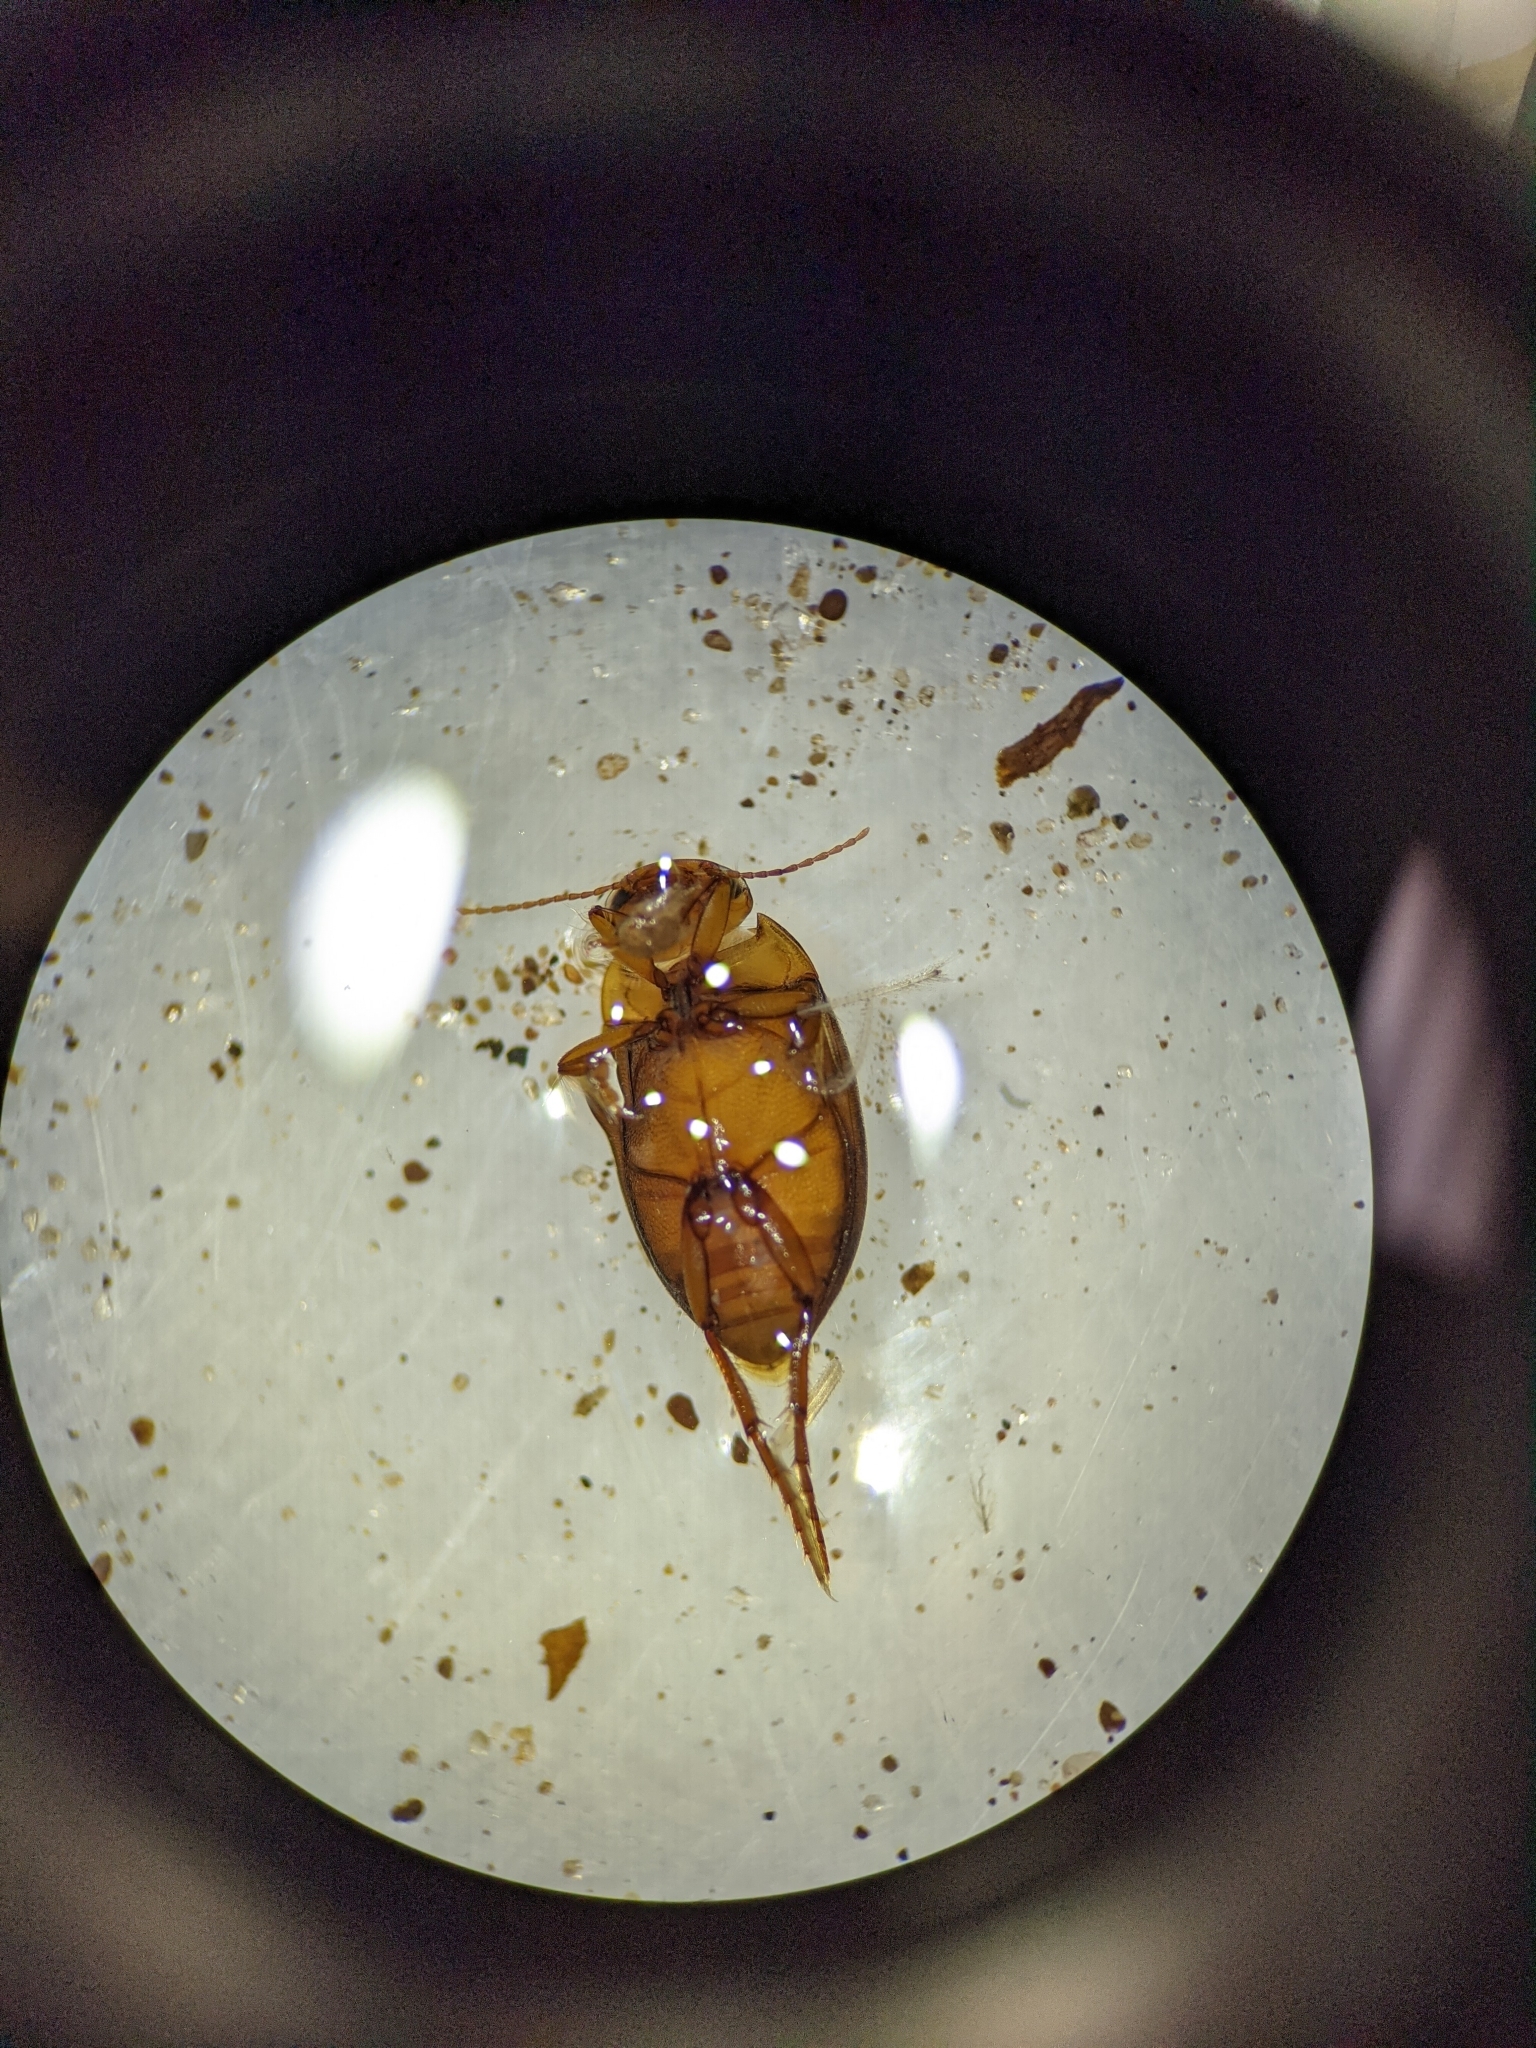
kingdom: Animalia
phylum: Arthropoda
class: Insecta
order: Coleoptera
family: Dytiscidae
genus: Liodessus
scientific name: Liodessus obscurellus
